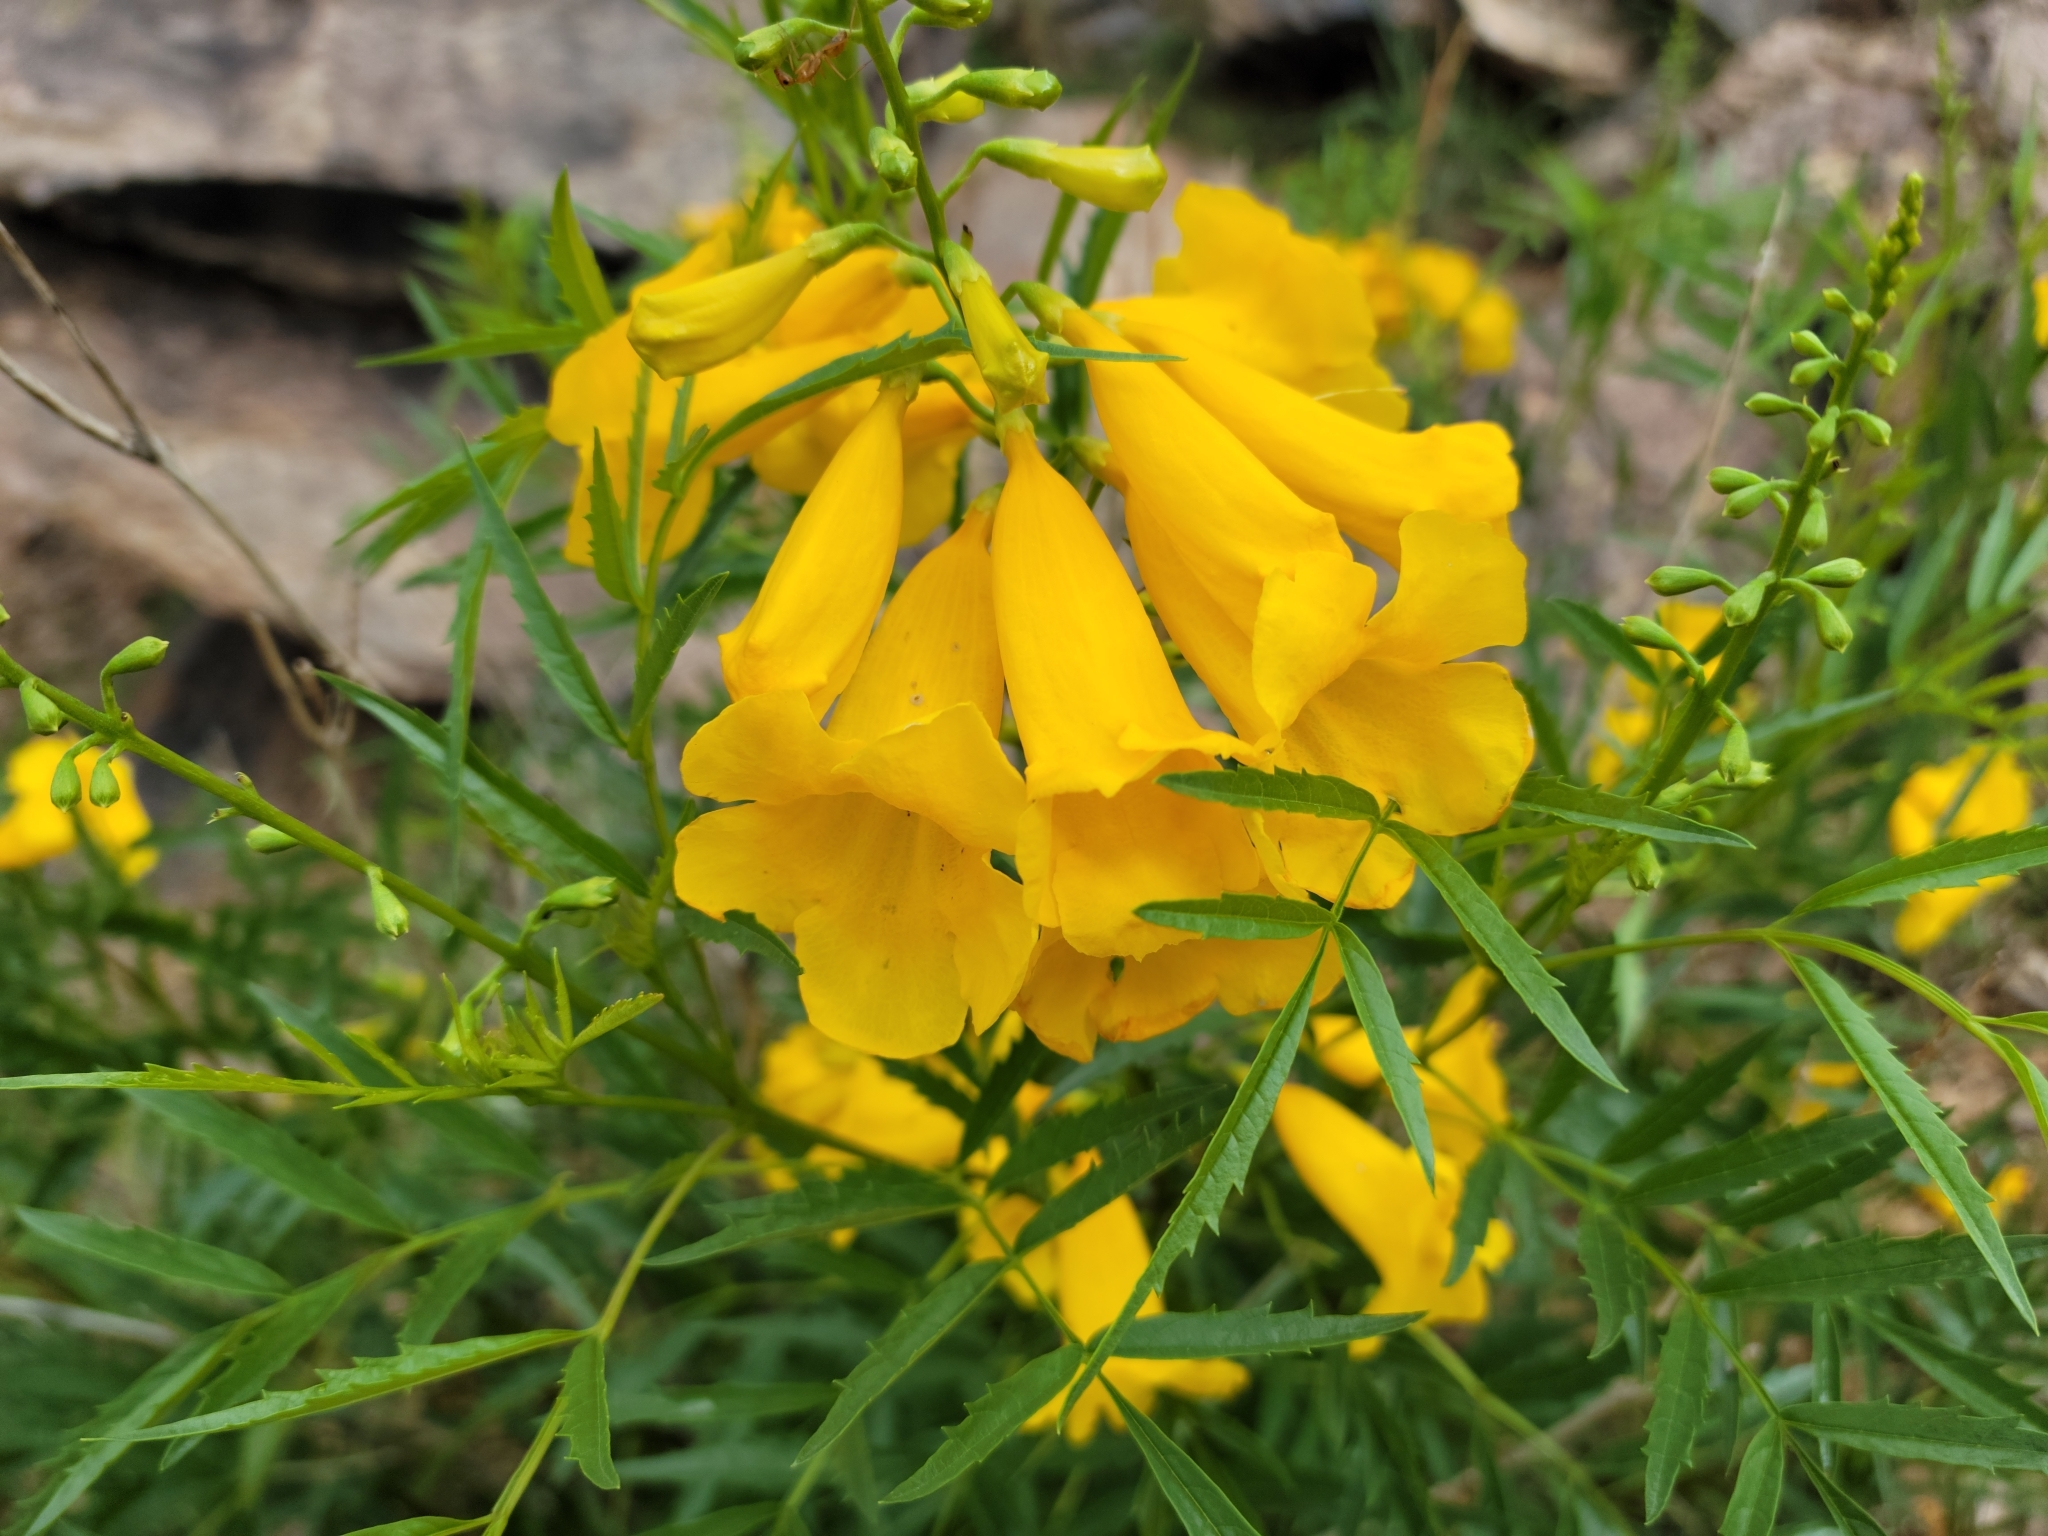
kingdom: Plantae
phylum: Tracheophyta
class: Magnoliopsida
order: Lamiales
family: Bignoniaceae
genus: Tecoma
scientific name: Tecoma stans
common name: Yellow trumpetbush
